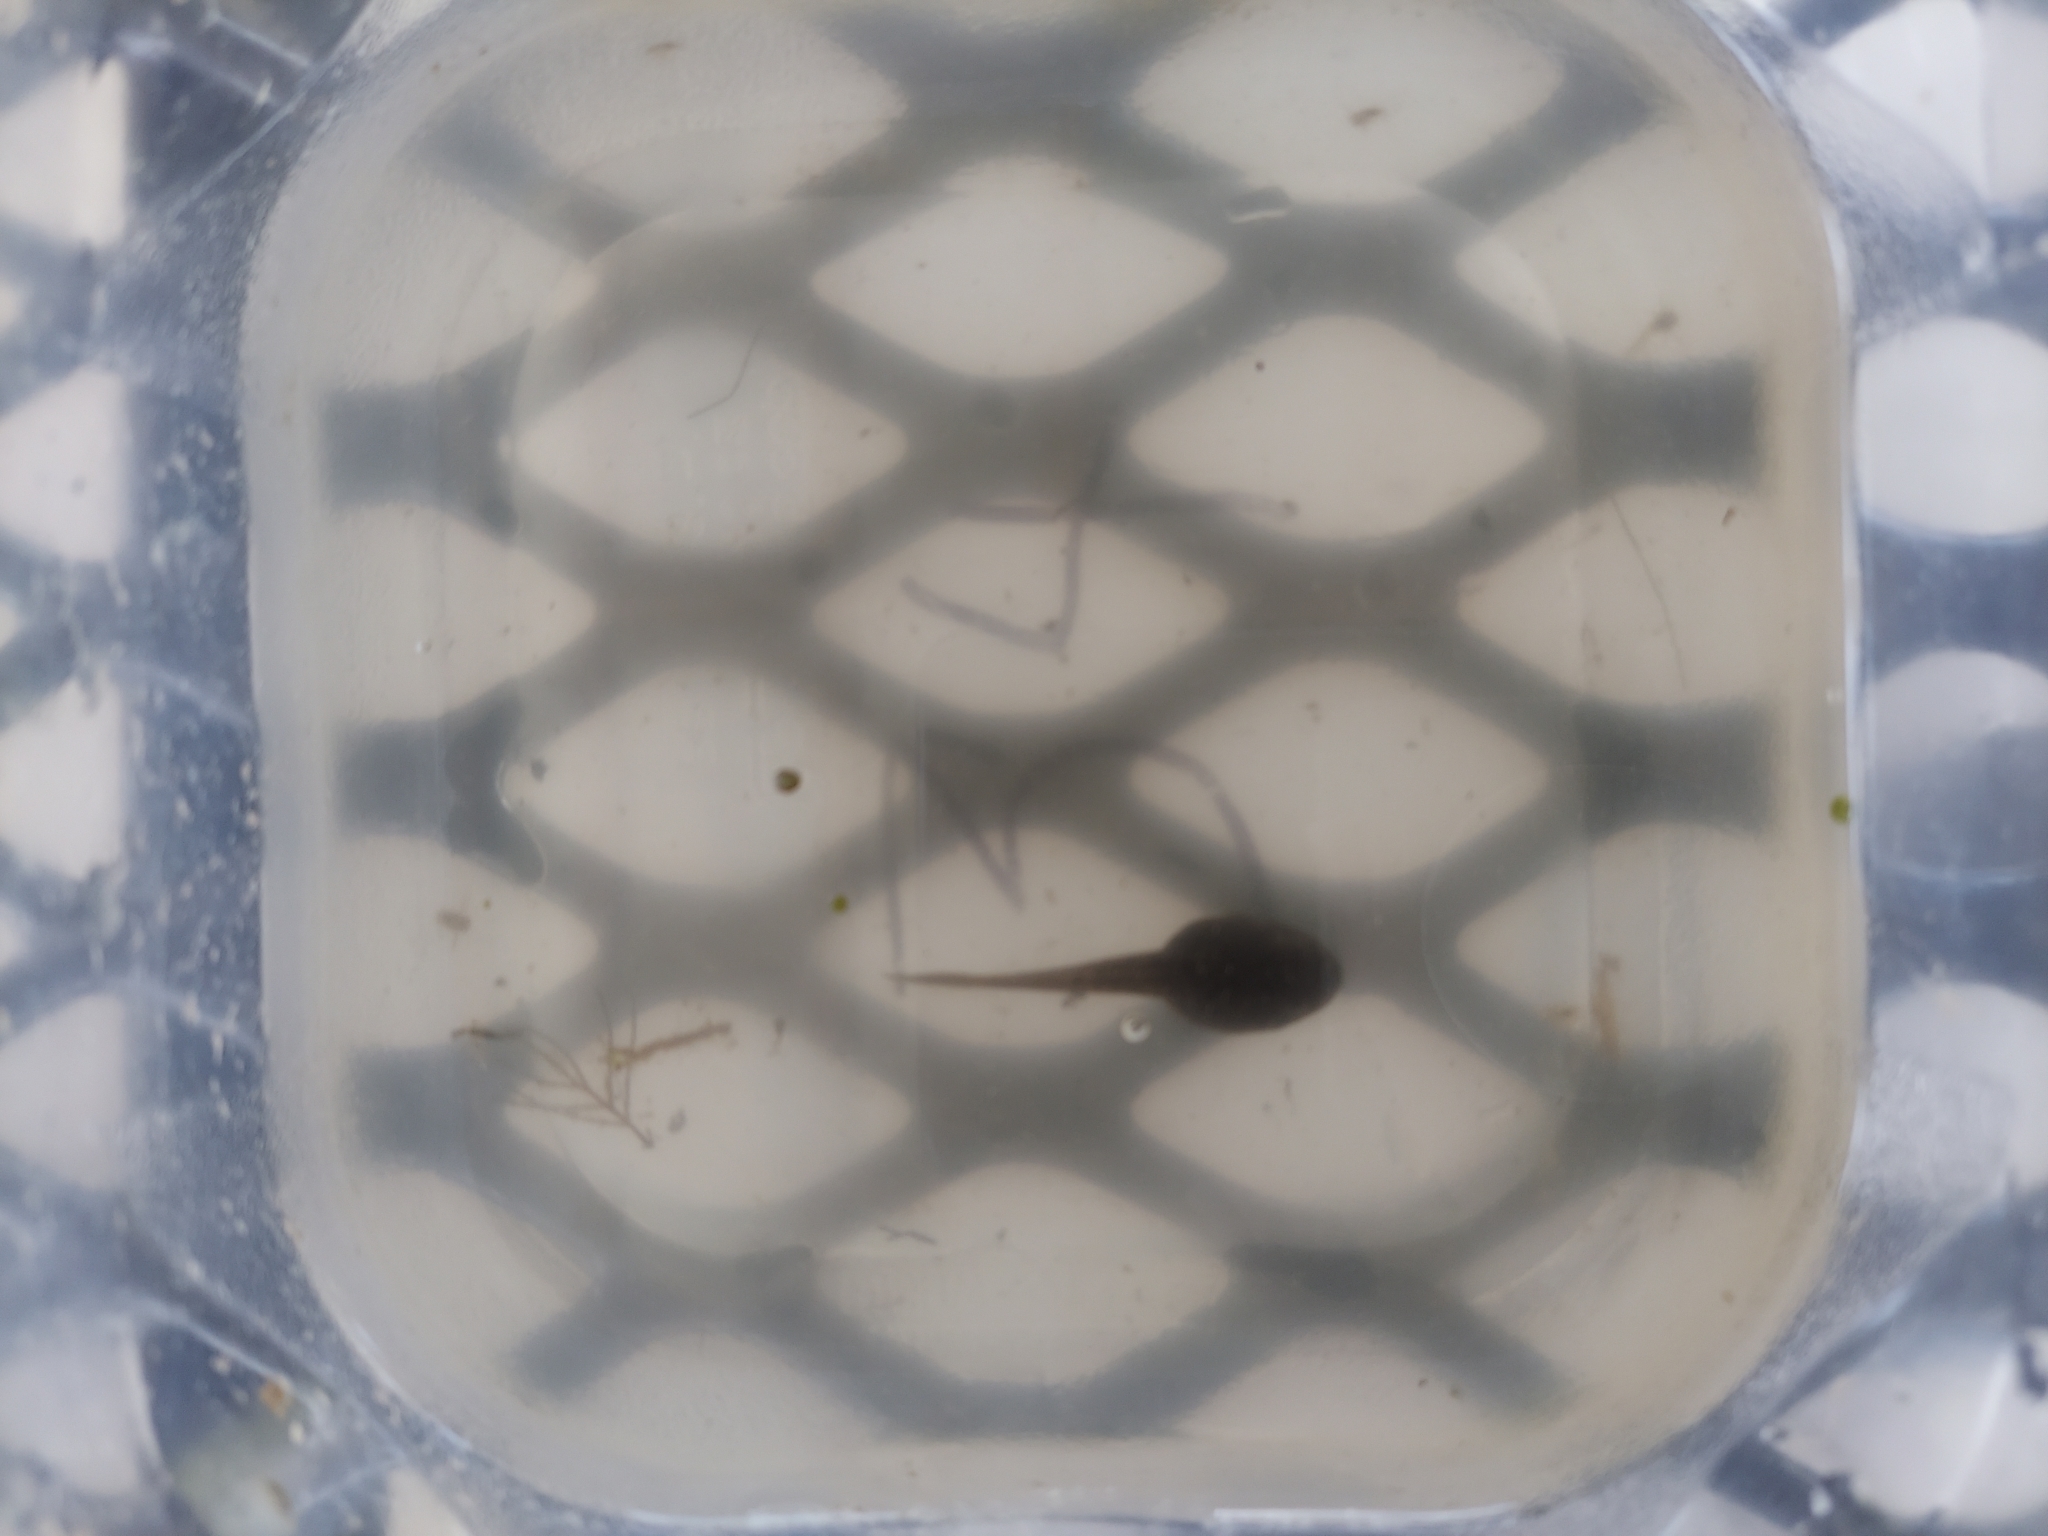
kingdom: Animalia
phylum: Chordata
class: Amphibia
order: Anura
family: Ranidae
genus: Lithobates
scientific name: Lithobates clamitans
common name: Green frog
